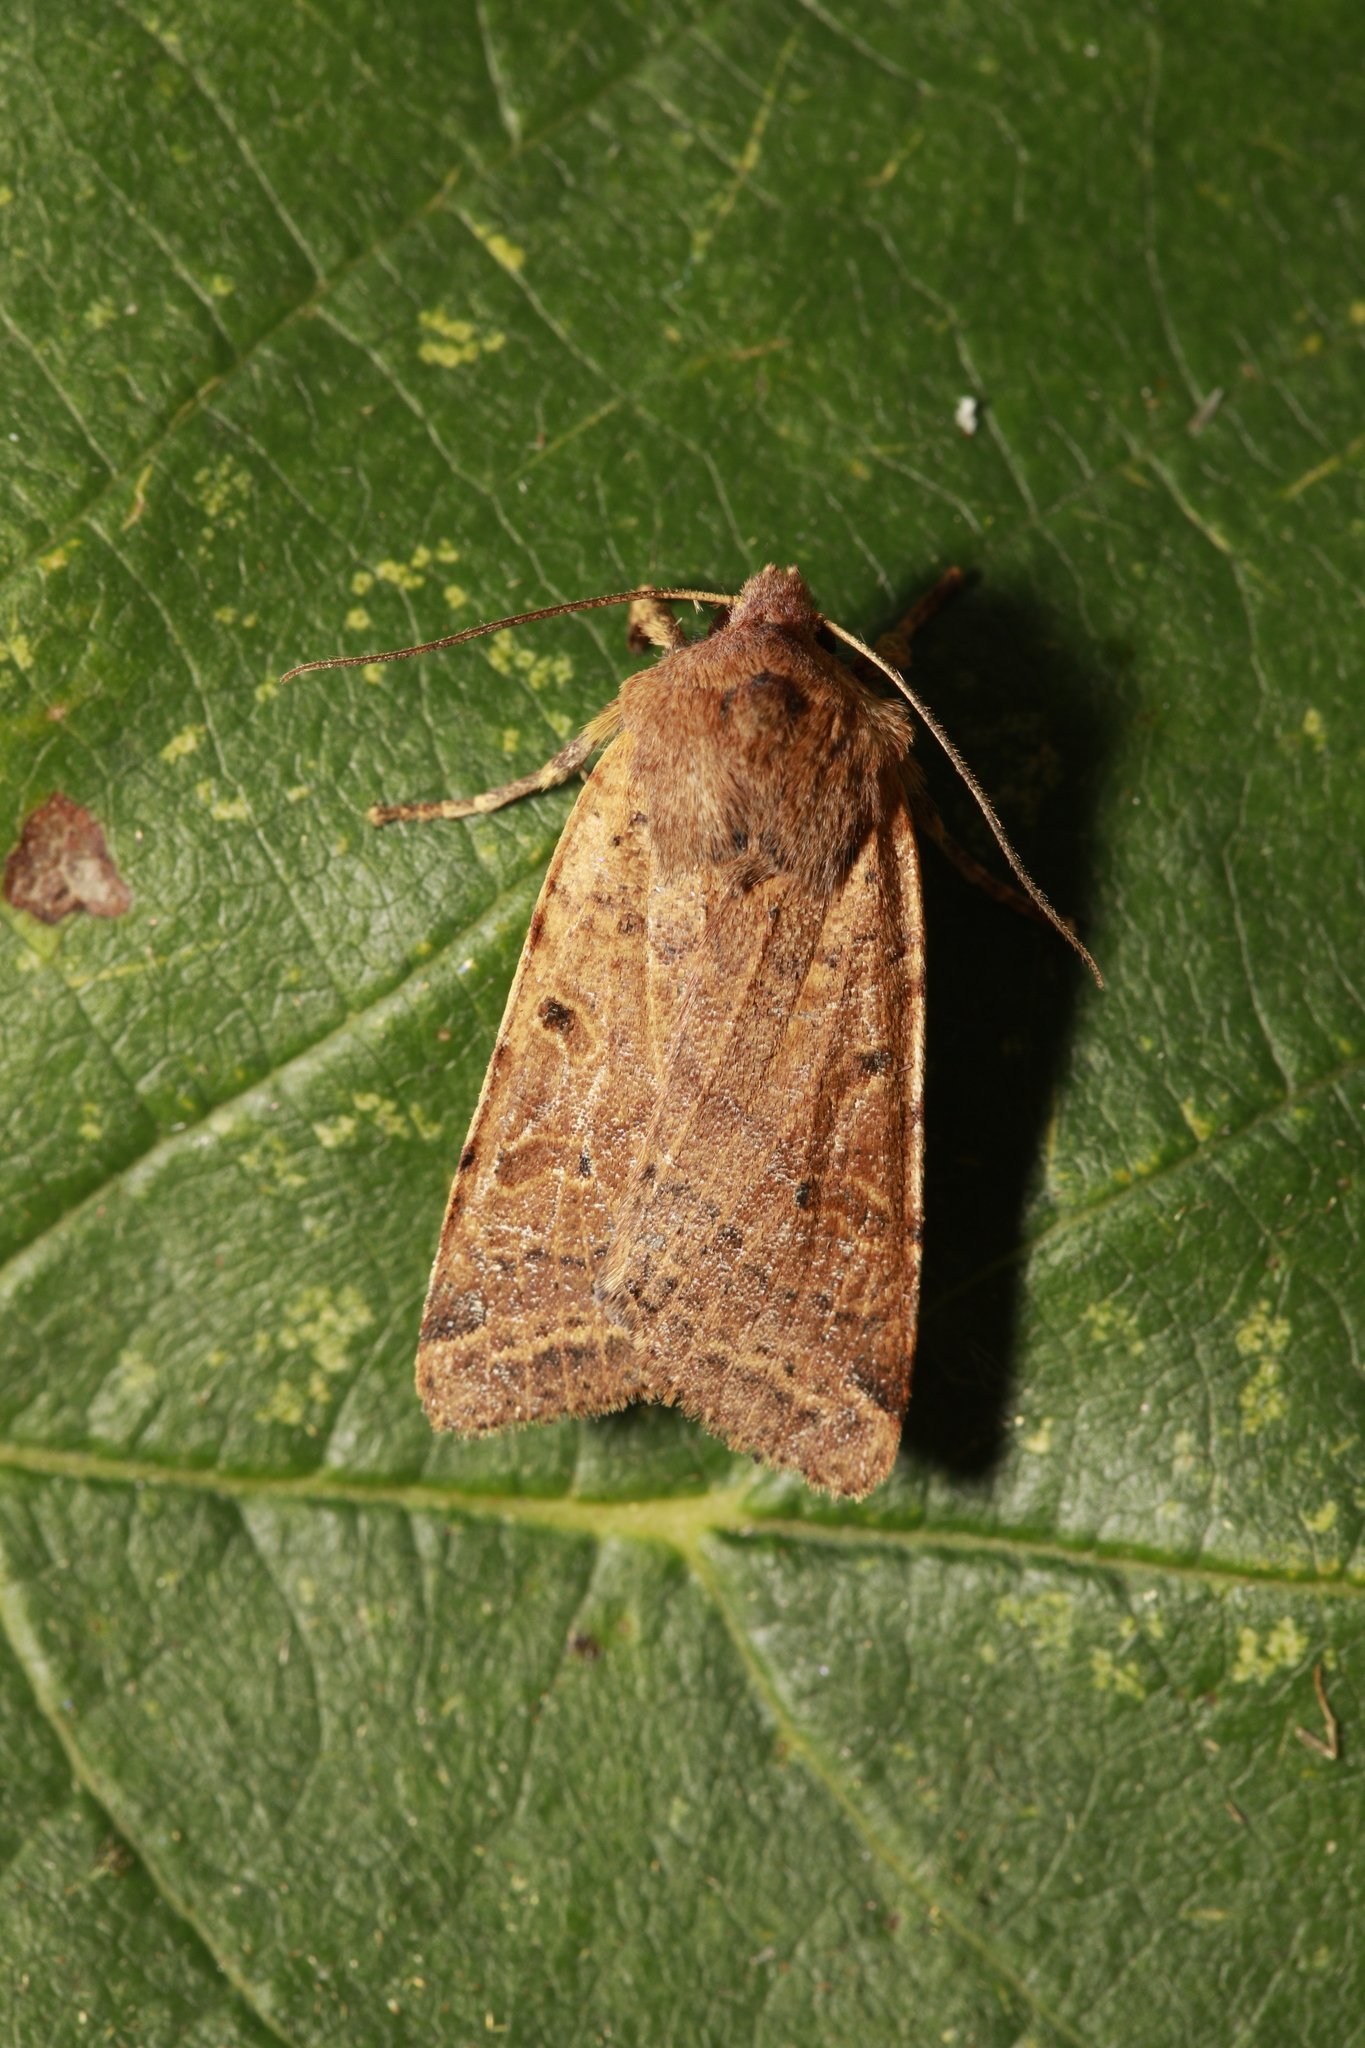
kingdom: Animalia
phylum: Arthropoda
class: Insecta
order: Lepidoptera
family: Noctuidae
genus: Agrochola
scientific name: Agrochola lychnidis
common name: Beaded chestnut
